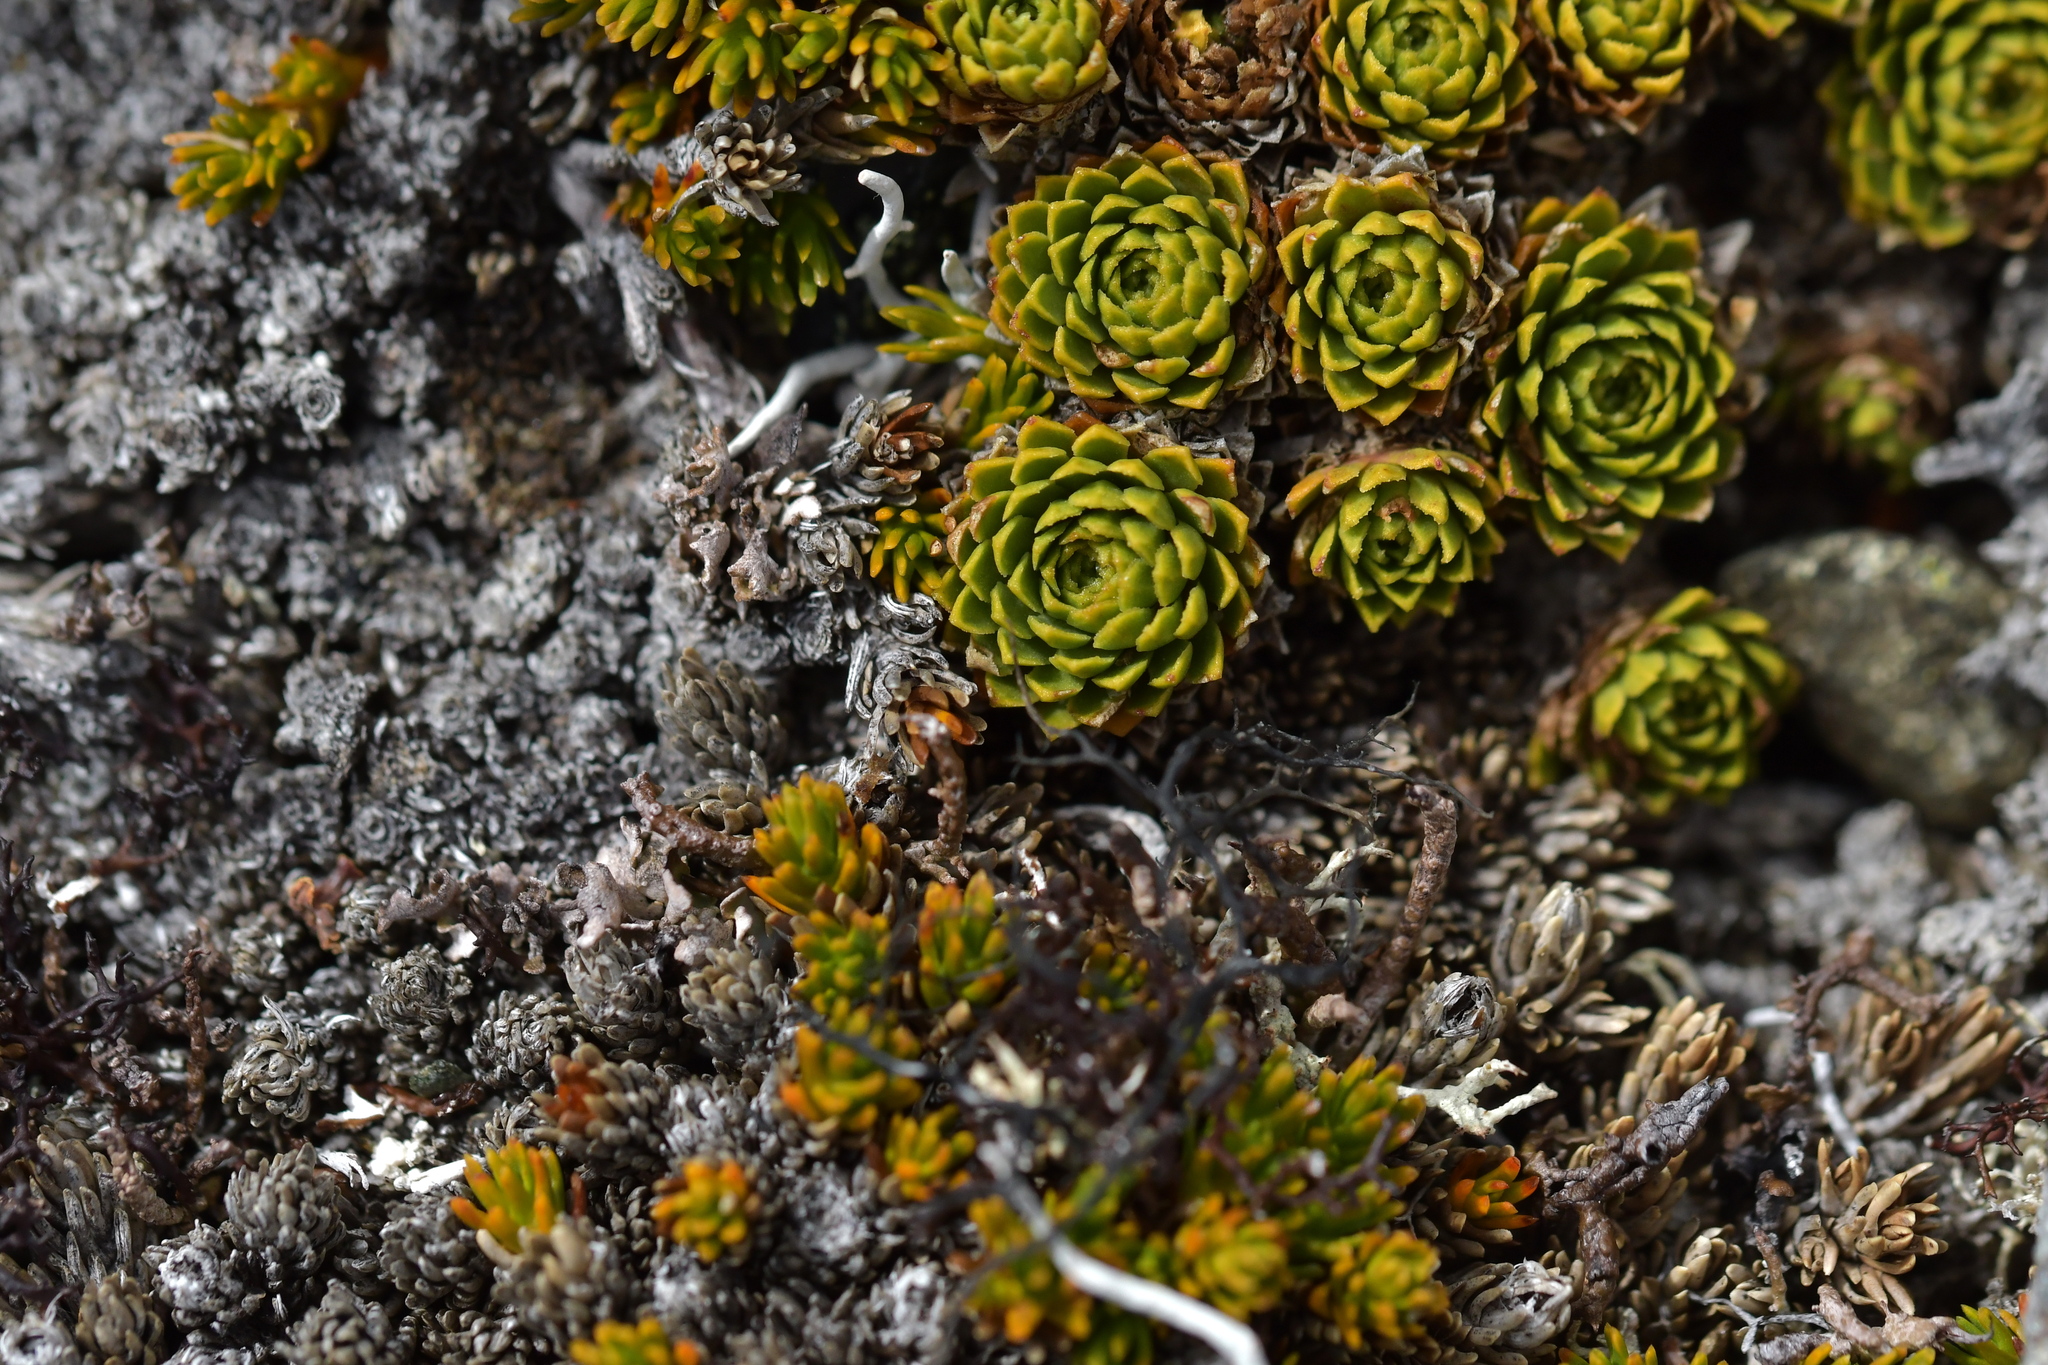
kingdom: Plantae
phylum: Tracheophyta
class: Magnoliopsida
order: Caryophyllales
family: Montiaceae
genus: Hectorella
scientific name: Hectorella caespitosa
